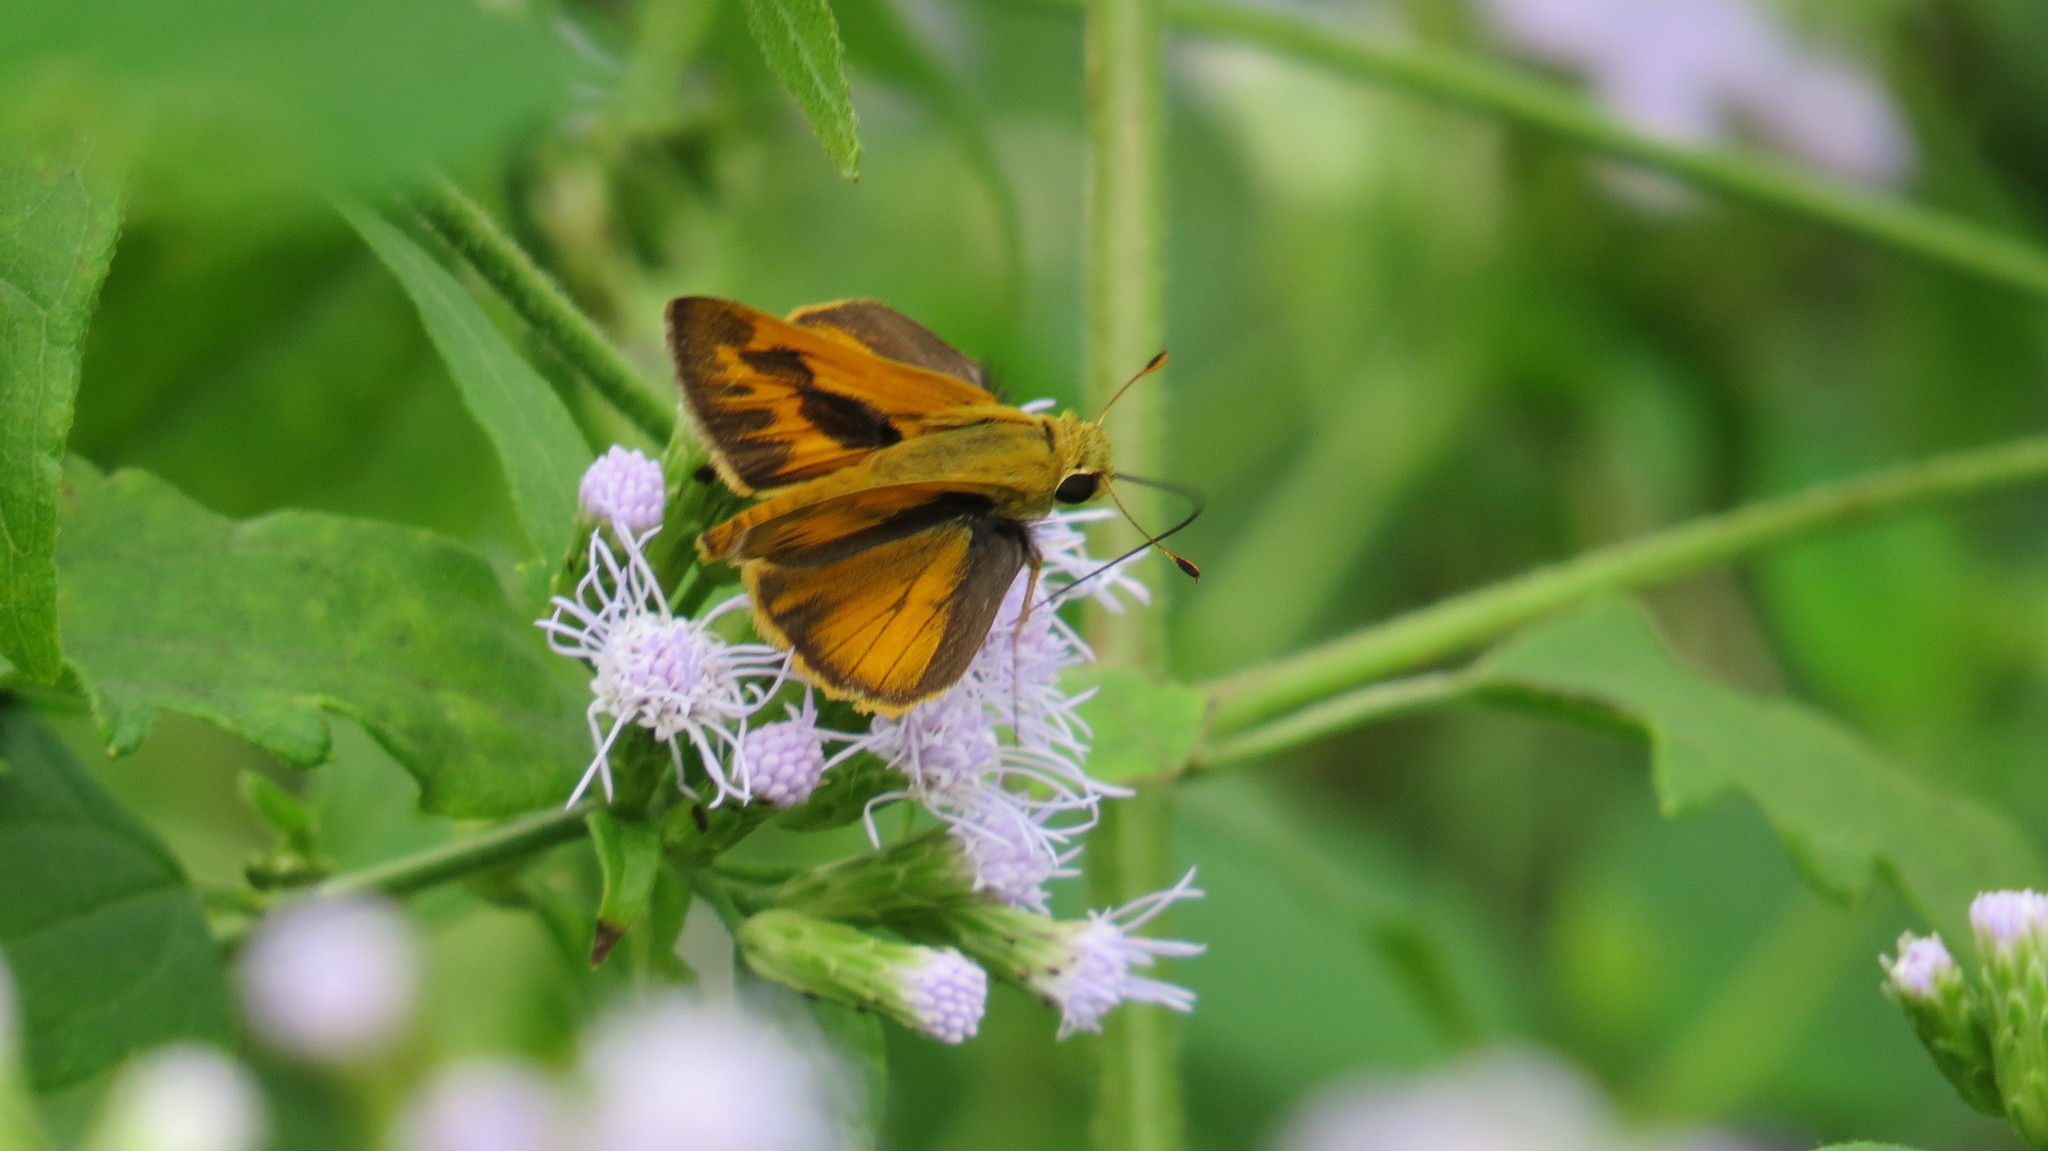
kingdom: Animalia
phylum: Arthropoda
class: Insecta
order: Lepidoptera
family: Hesperiidae
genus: Hylephila
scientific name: Hylephila phyleus
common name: Fiery skipper
